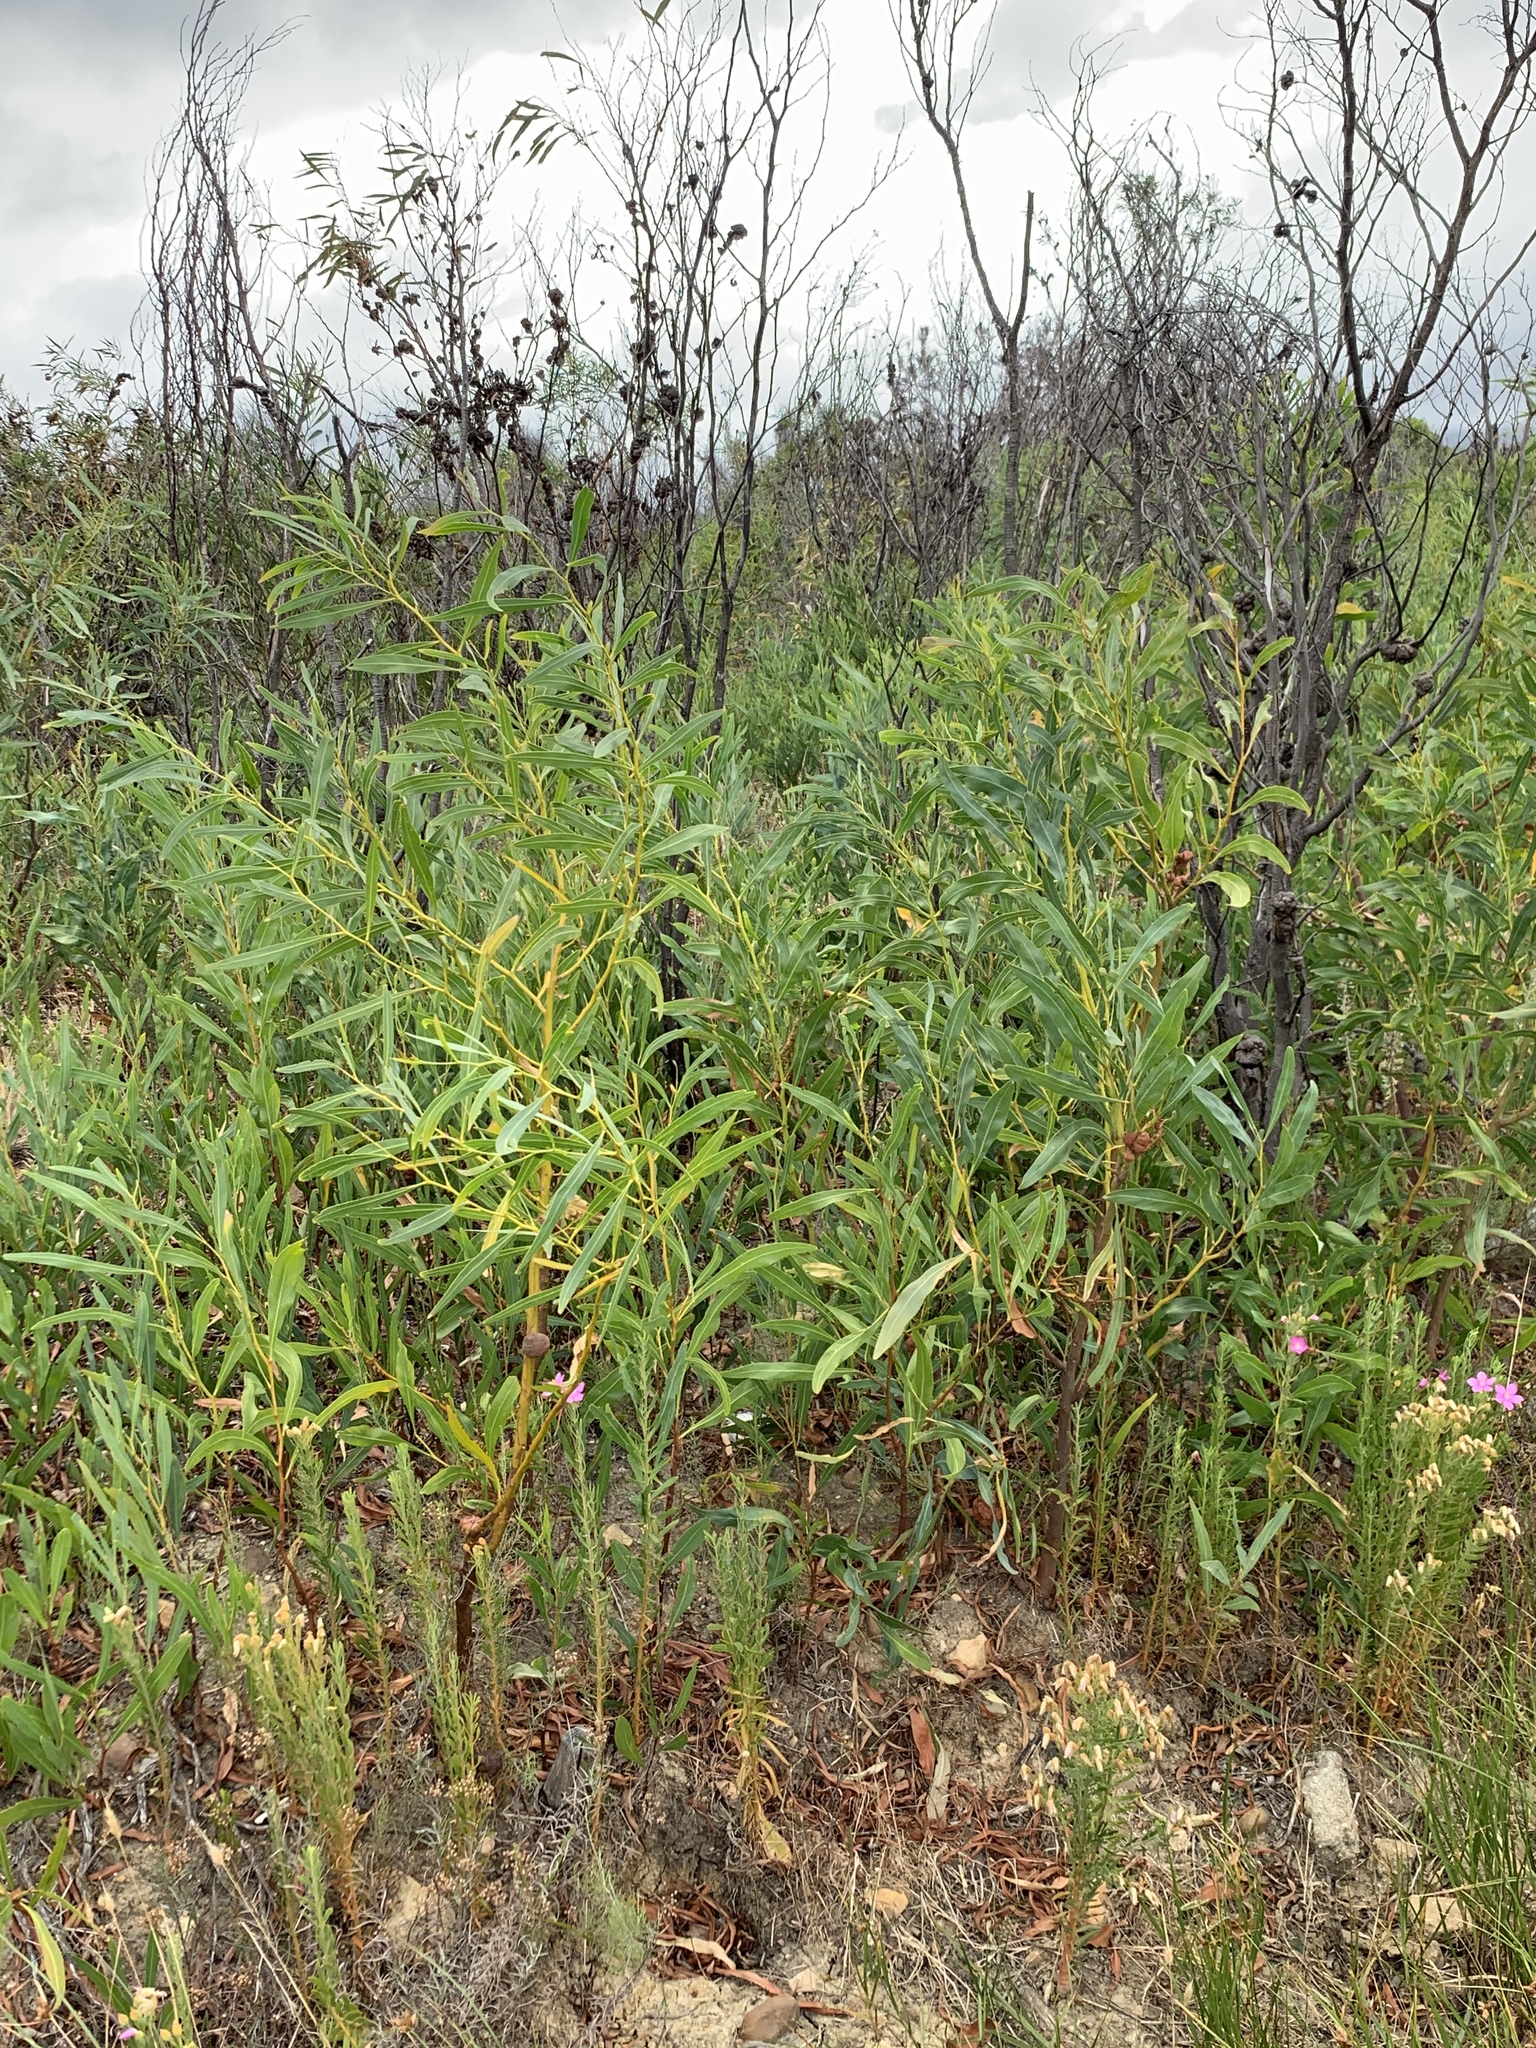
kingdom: Plantae
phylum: Tracheophyta
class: Magnoliopsida
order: Fabales
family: Fabaceae
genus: Acacia
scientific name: Acacia saligna
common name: Orange wattle
